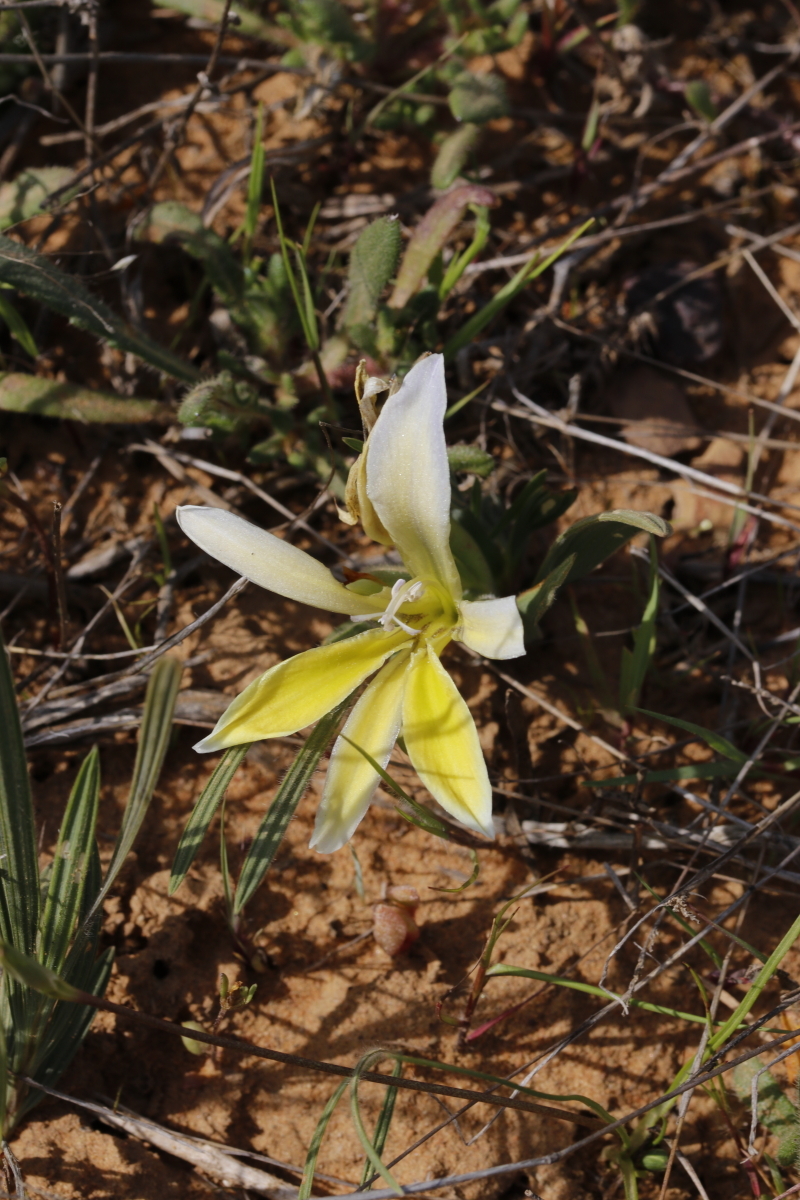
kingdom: Plantae
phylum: Tracheophyta
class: Liliopsida
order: Asparagales
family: Iridaceae
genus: Babiana
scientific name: Babiana vanzijliae
